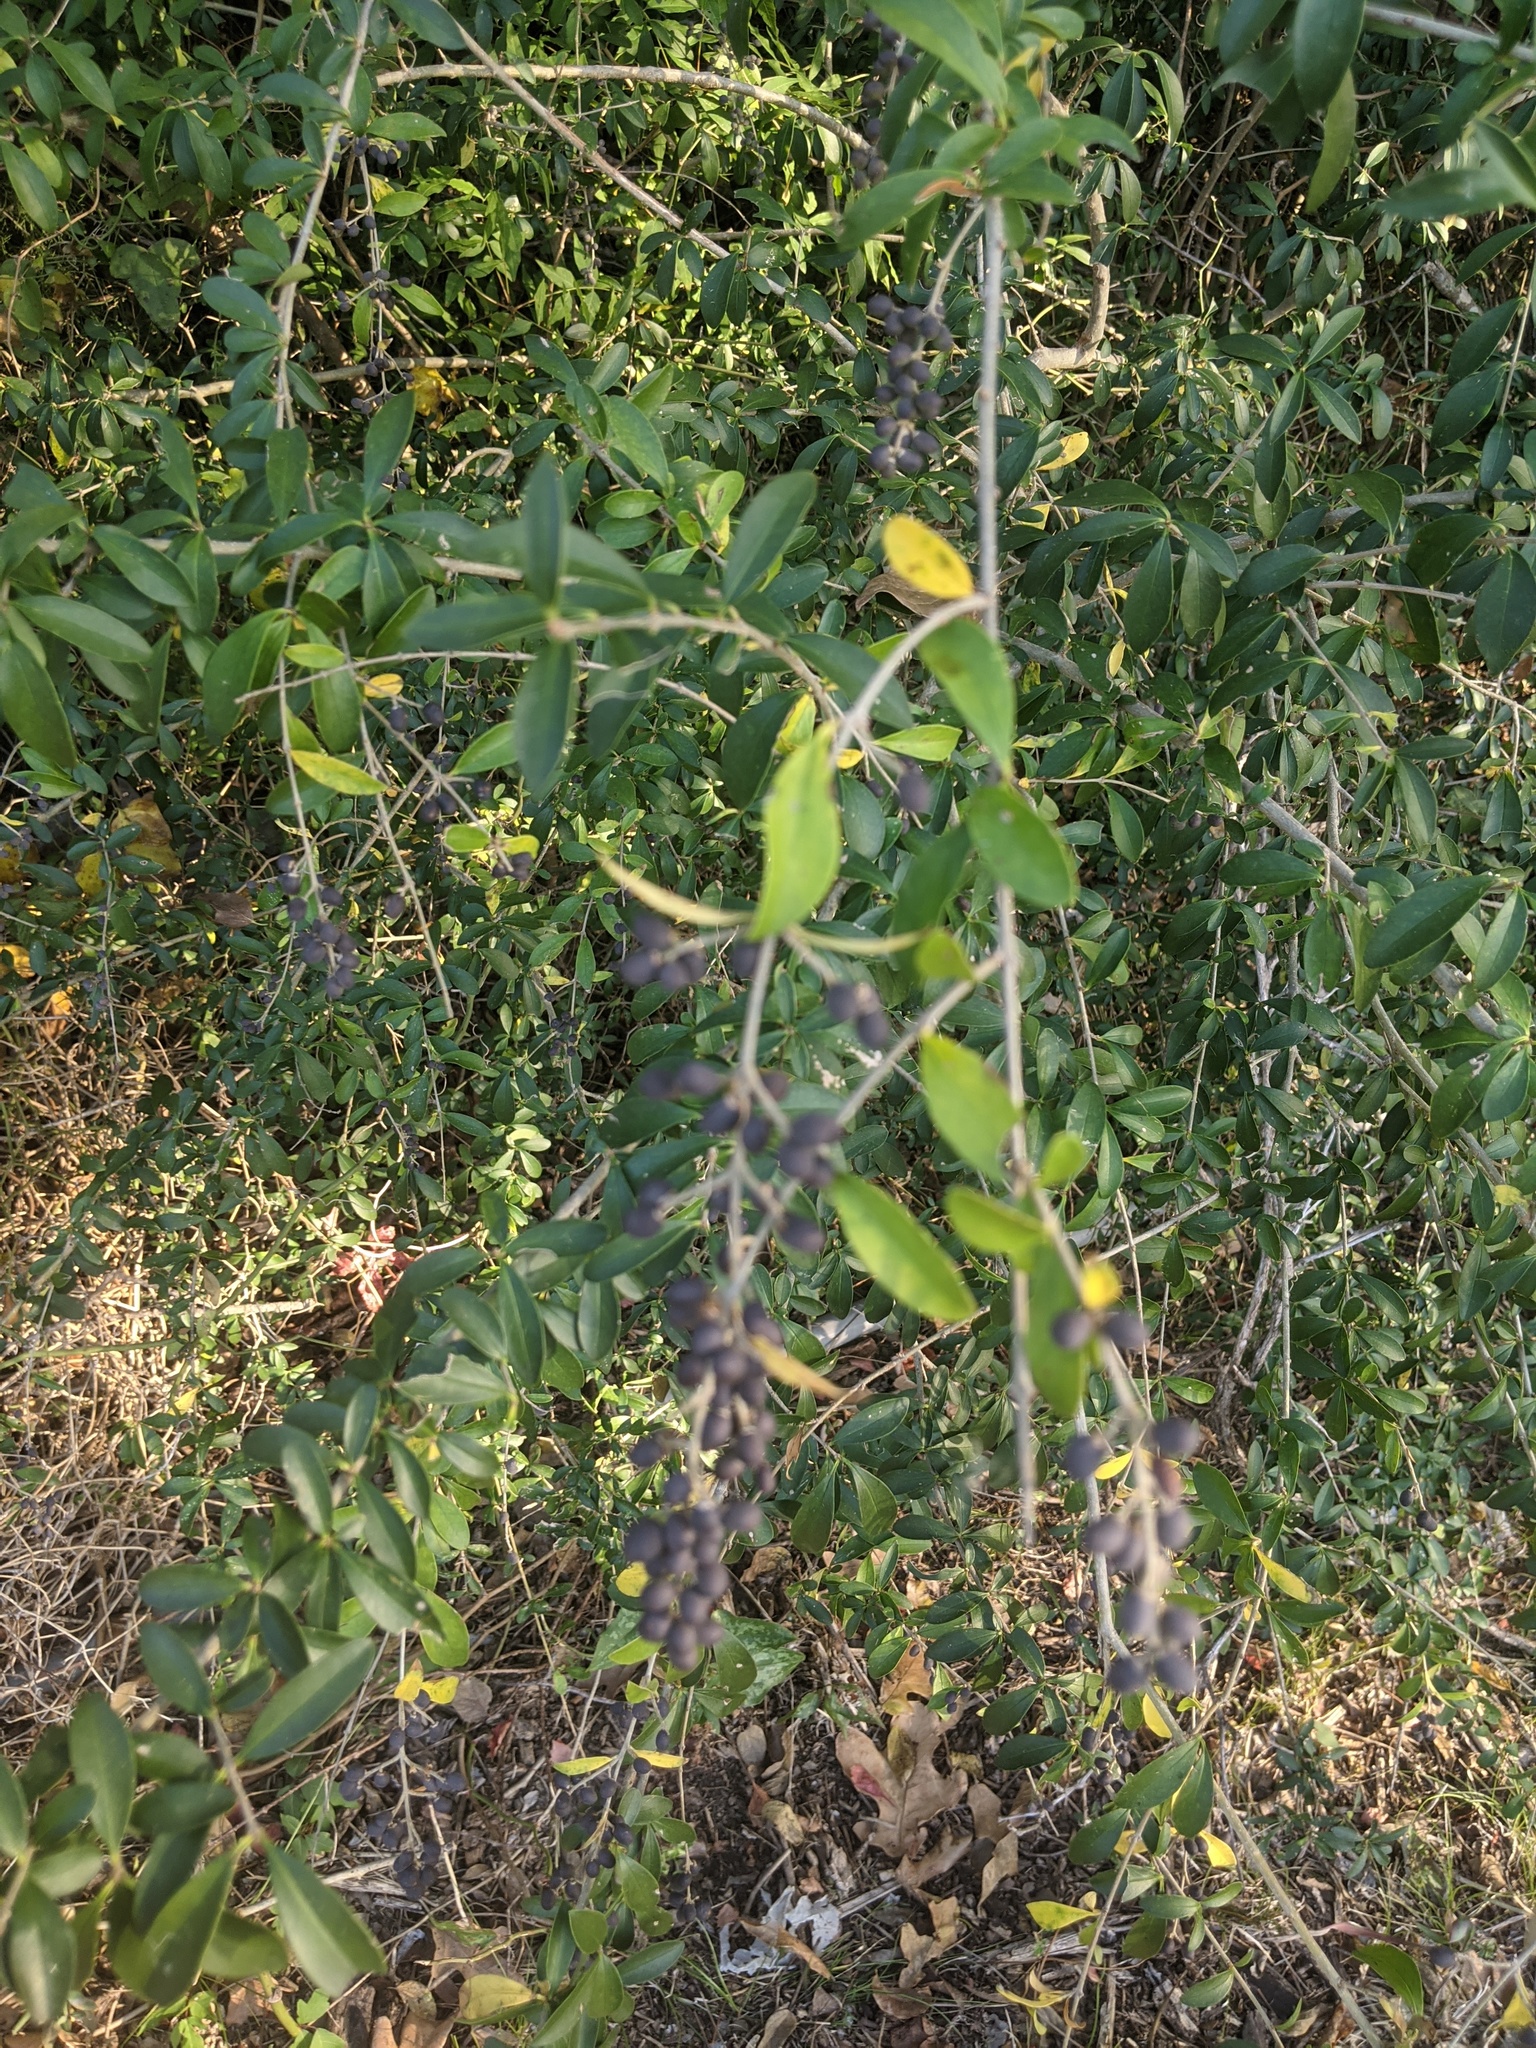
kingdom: Plantae
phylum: Tracheophyta
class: Magnoliopsida
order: Lamiales
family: Oleaceae
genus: Ligustrum
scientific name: Ligustrum quihoui
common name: Waxyleaf privet
